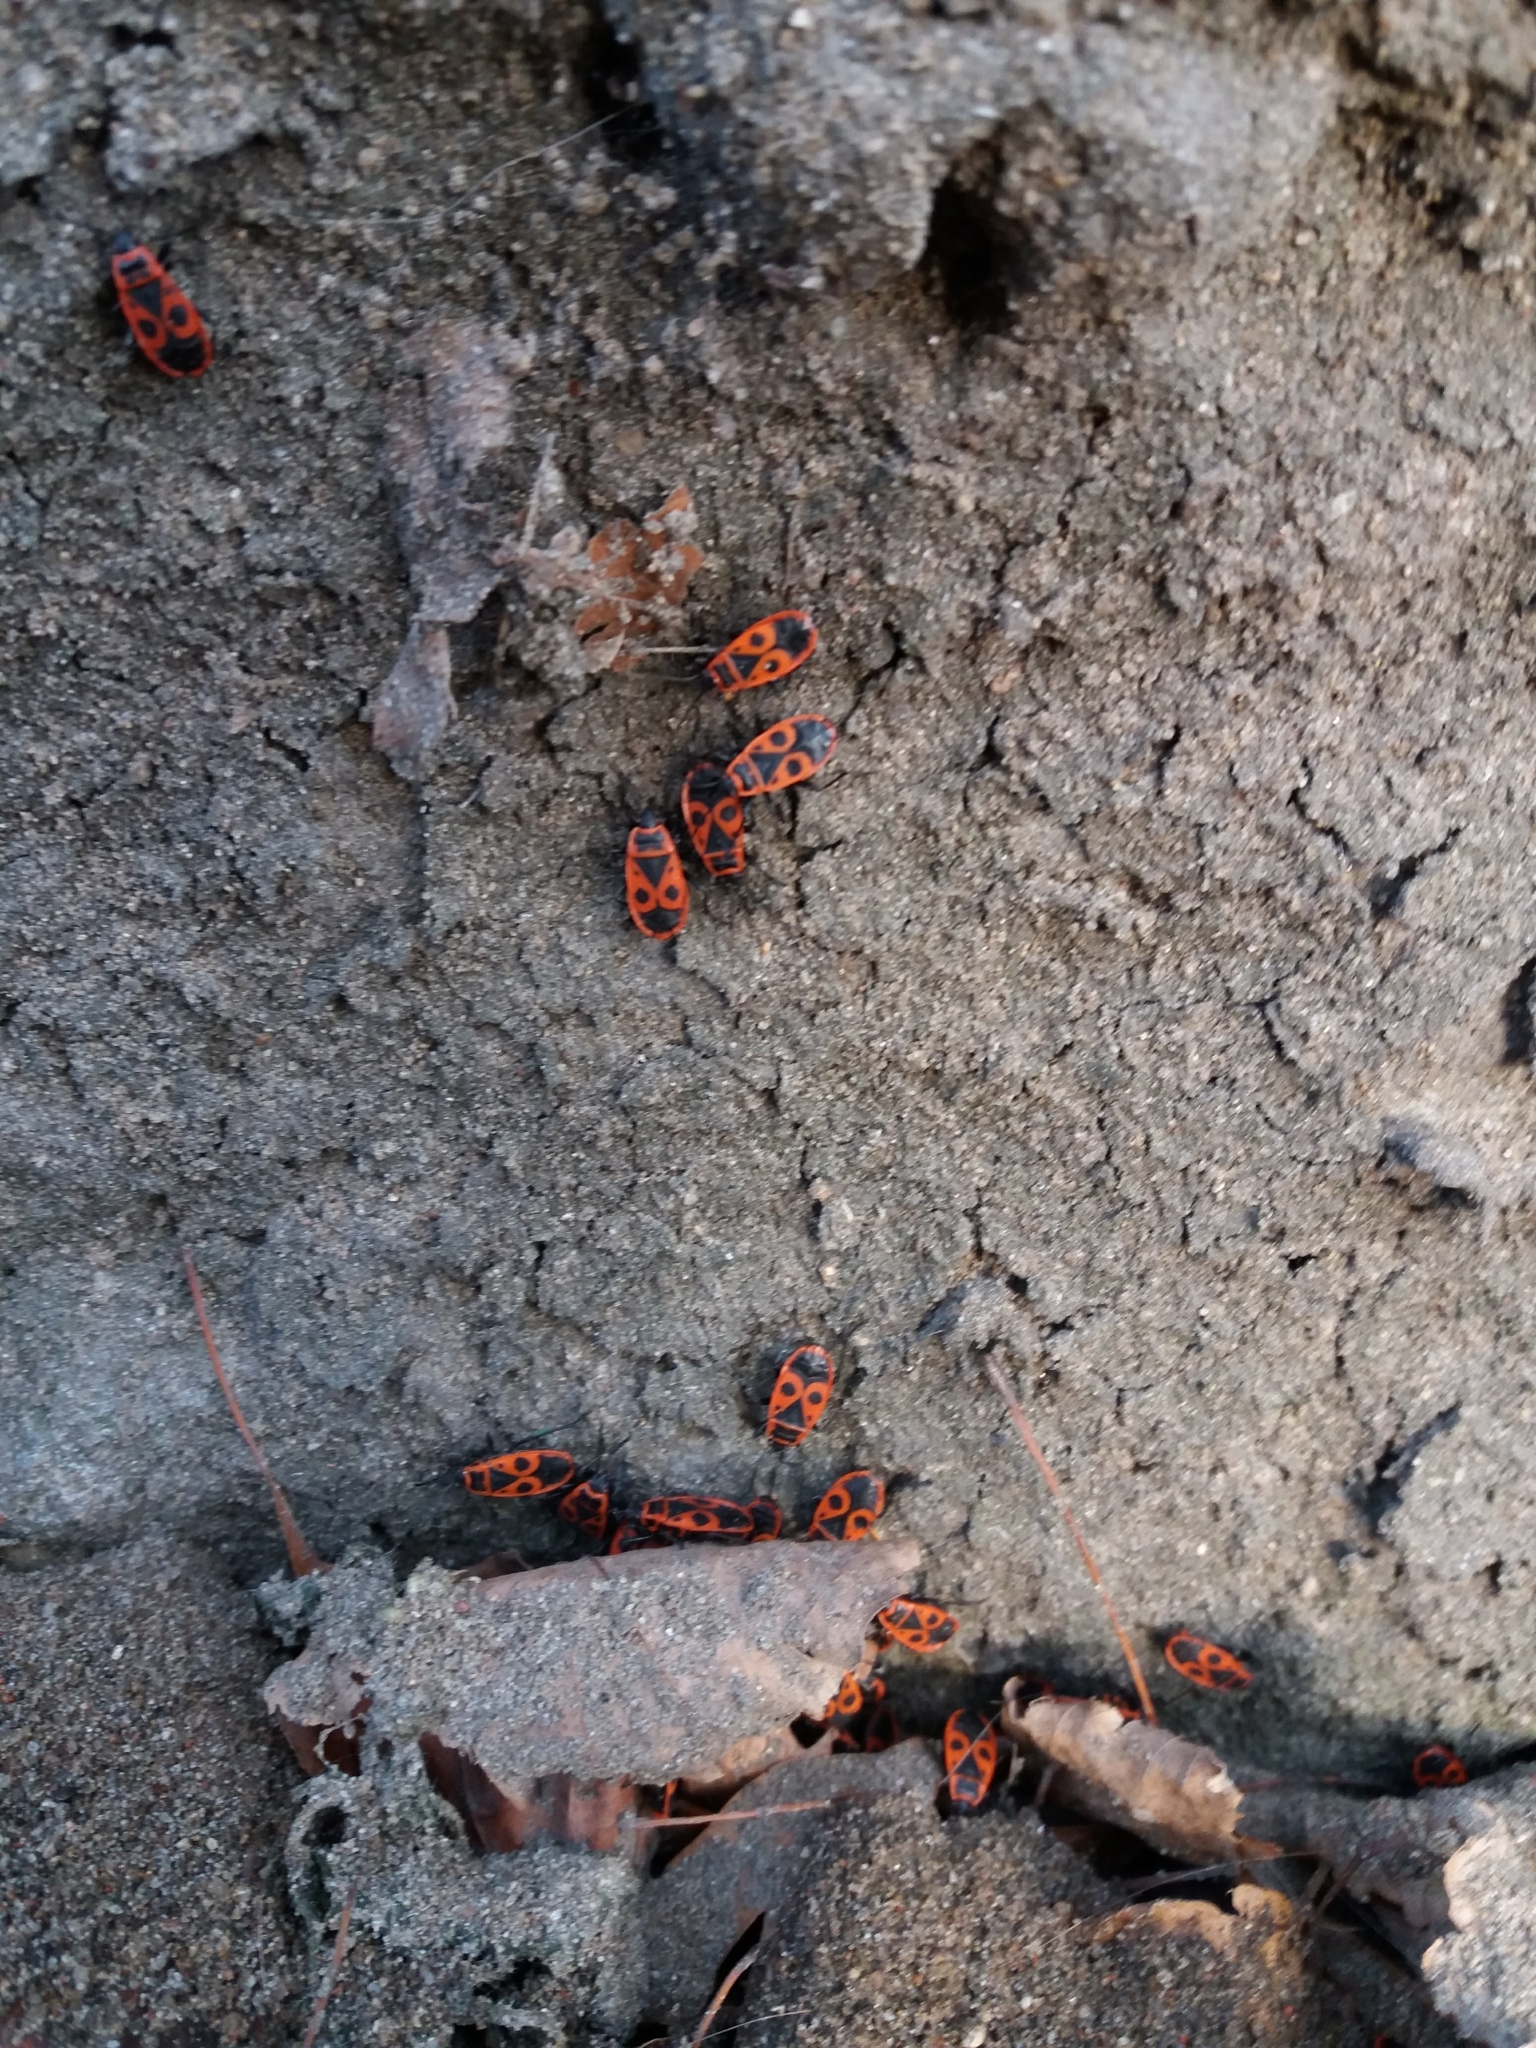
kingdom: Animalia
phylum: Arthropoda
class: Insecta
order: Hemiptera
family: Pyrrhocoridae
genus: Pyrrhocoris
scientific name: Pyrrhocoris apterus
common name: Firebug
